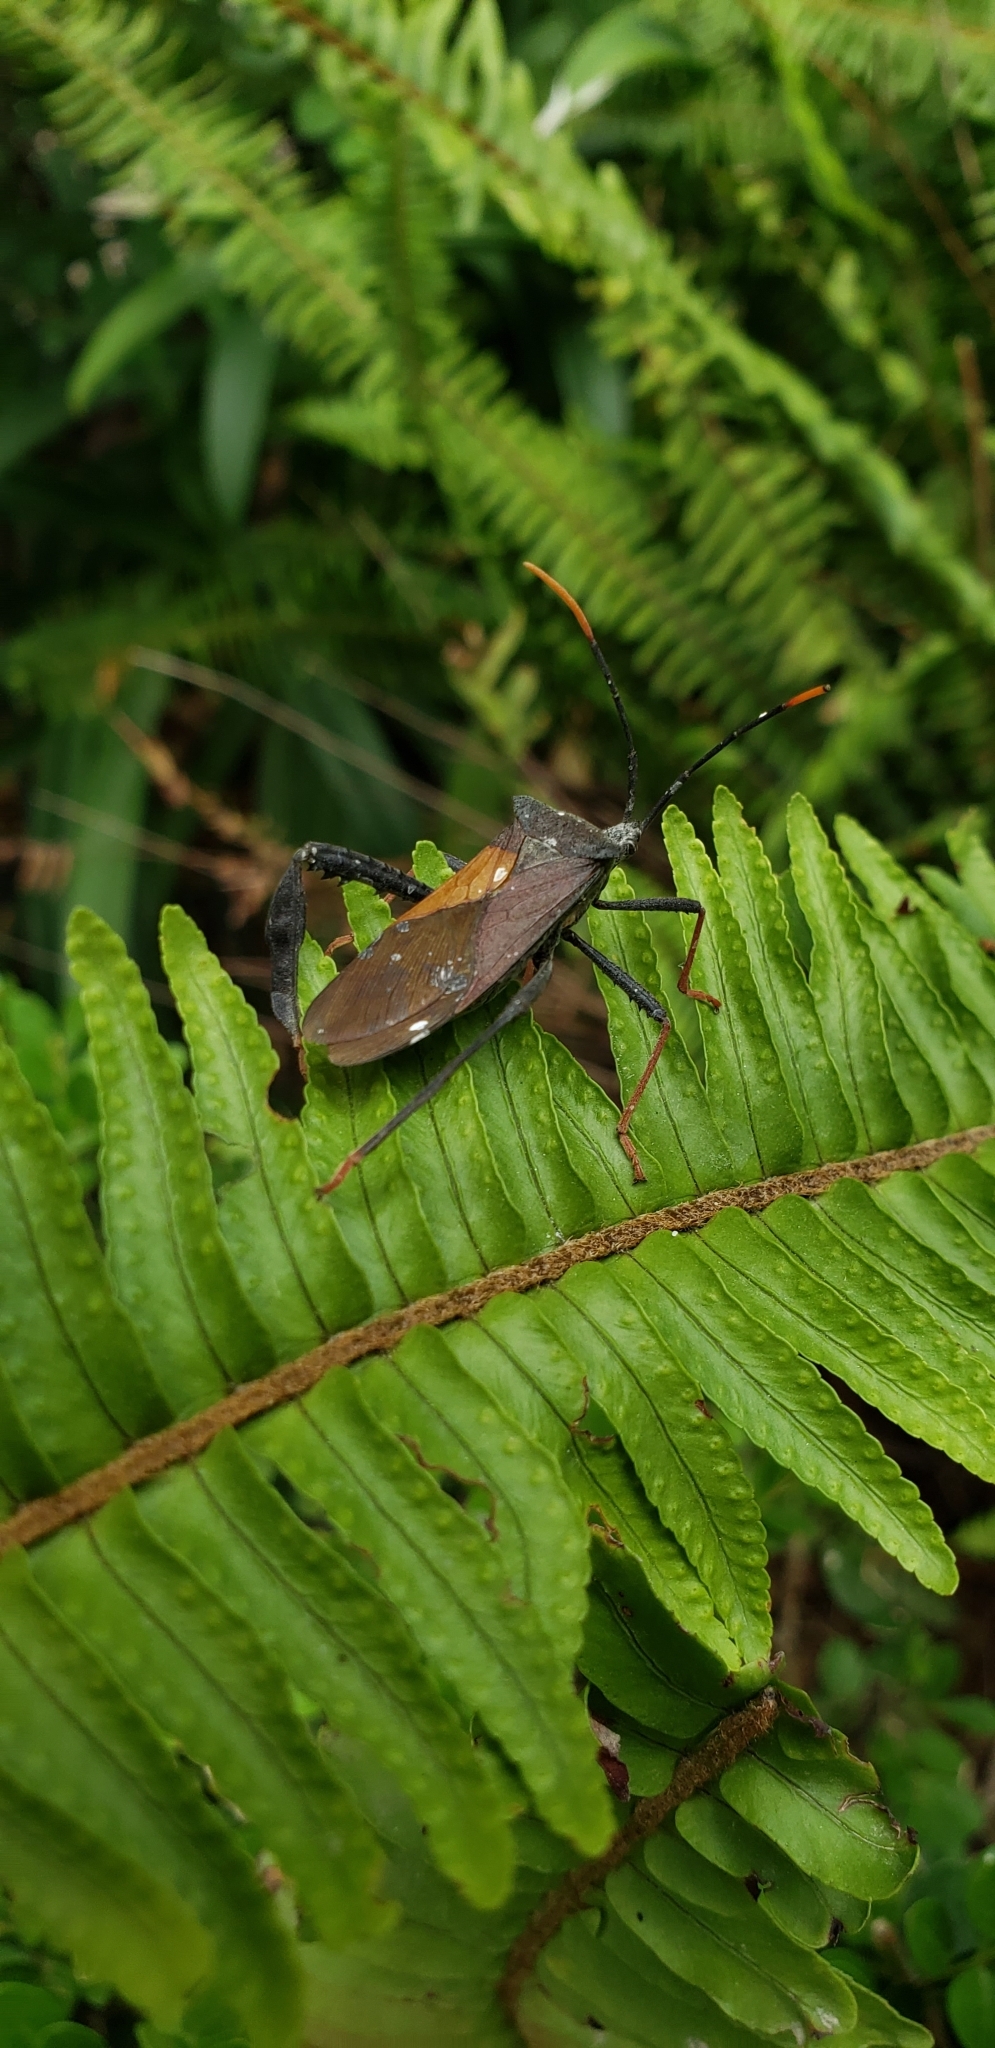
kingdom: Animalia
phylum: Arthropoda
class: Insecta
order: Hemiptera
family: Coreidae
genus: Acanthocephala
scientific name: Acanthocephala thomasi
